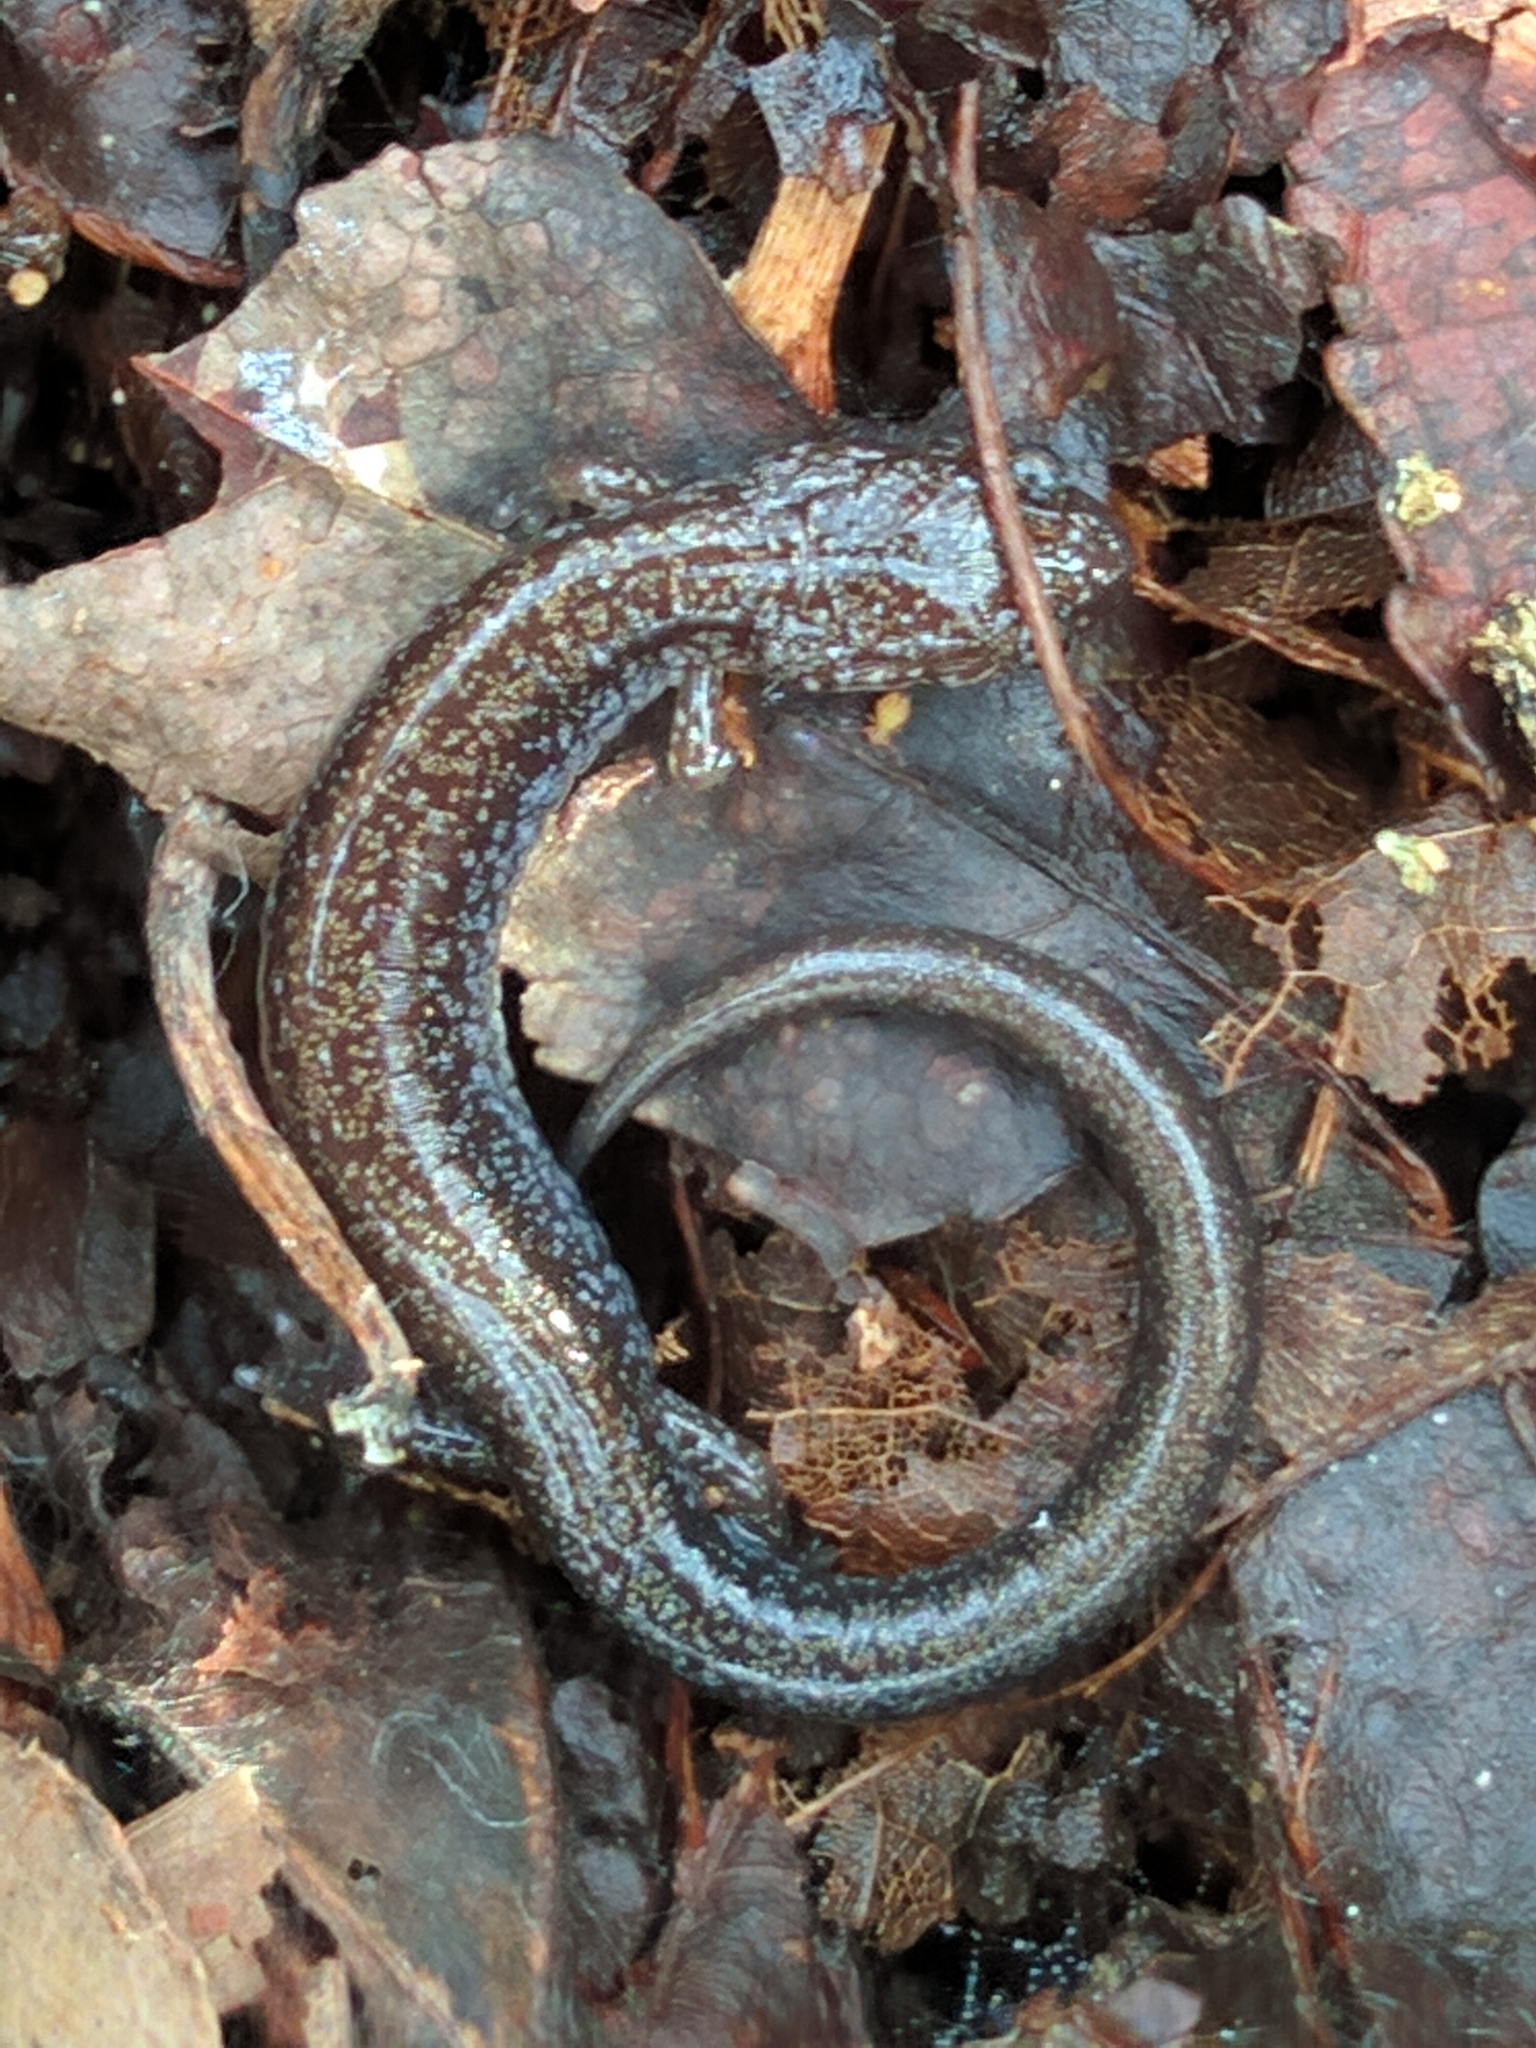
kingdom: Animalia
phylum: Chordata
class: Amphibia
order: Caudata
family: Plethodontidae
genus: Plethodon
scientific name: Plethodon cinereus
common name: Redback salamander
